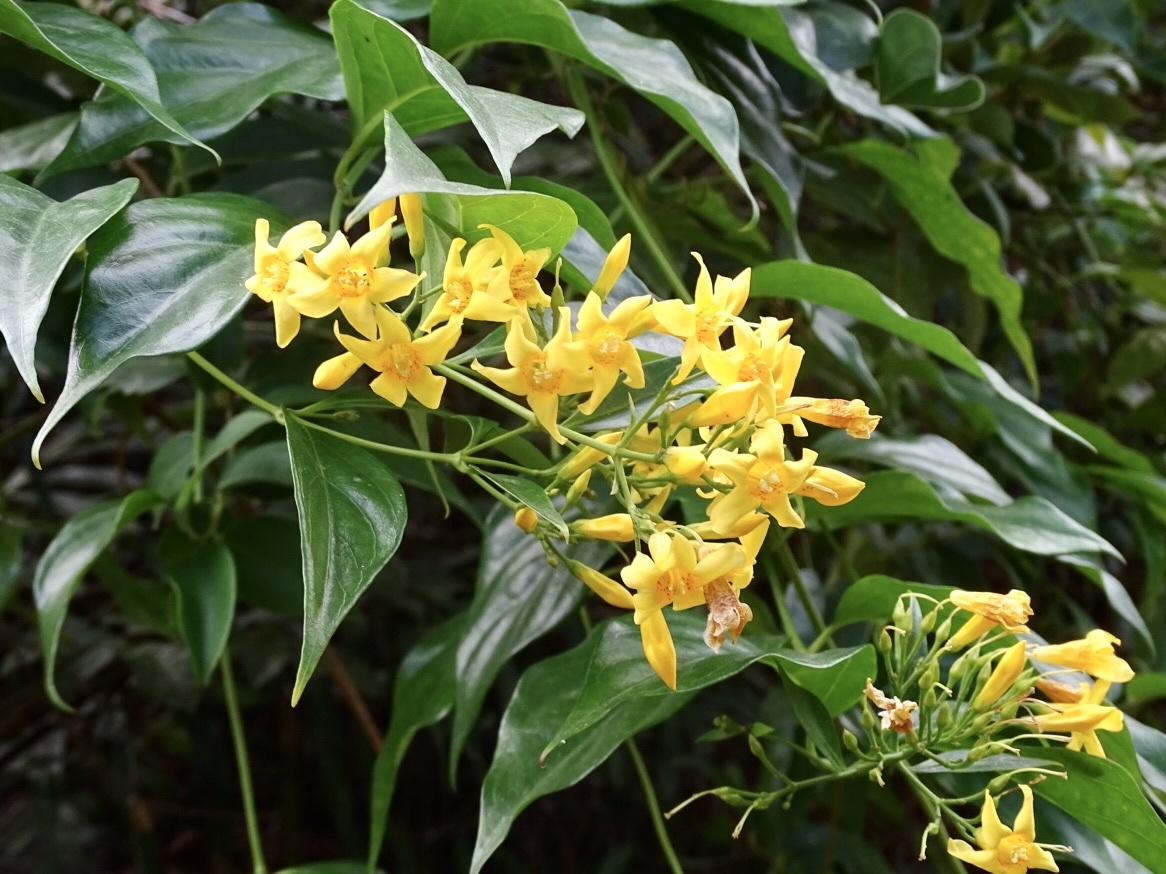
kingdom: Plantae
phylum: Tracheophyta
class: Magnoliopsida
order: Gentianales
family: Gelsemiaceae
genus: Gelsemium
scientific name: Gelsemium elegans
